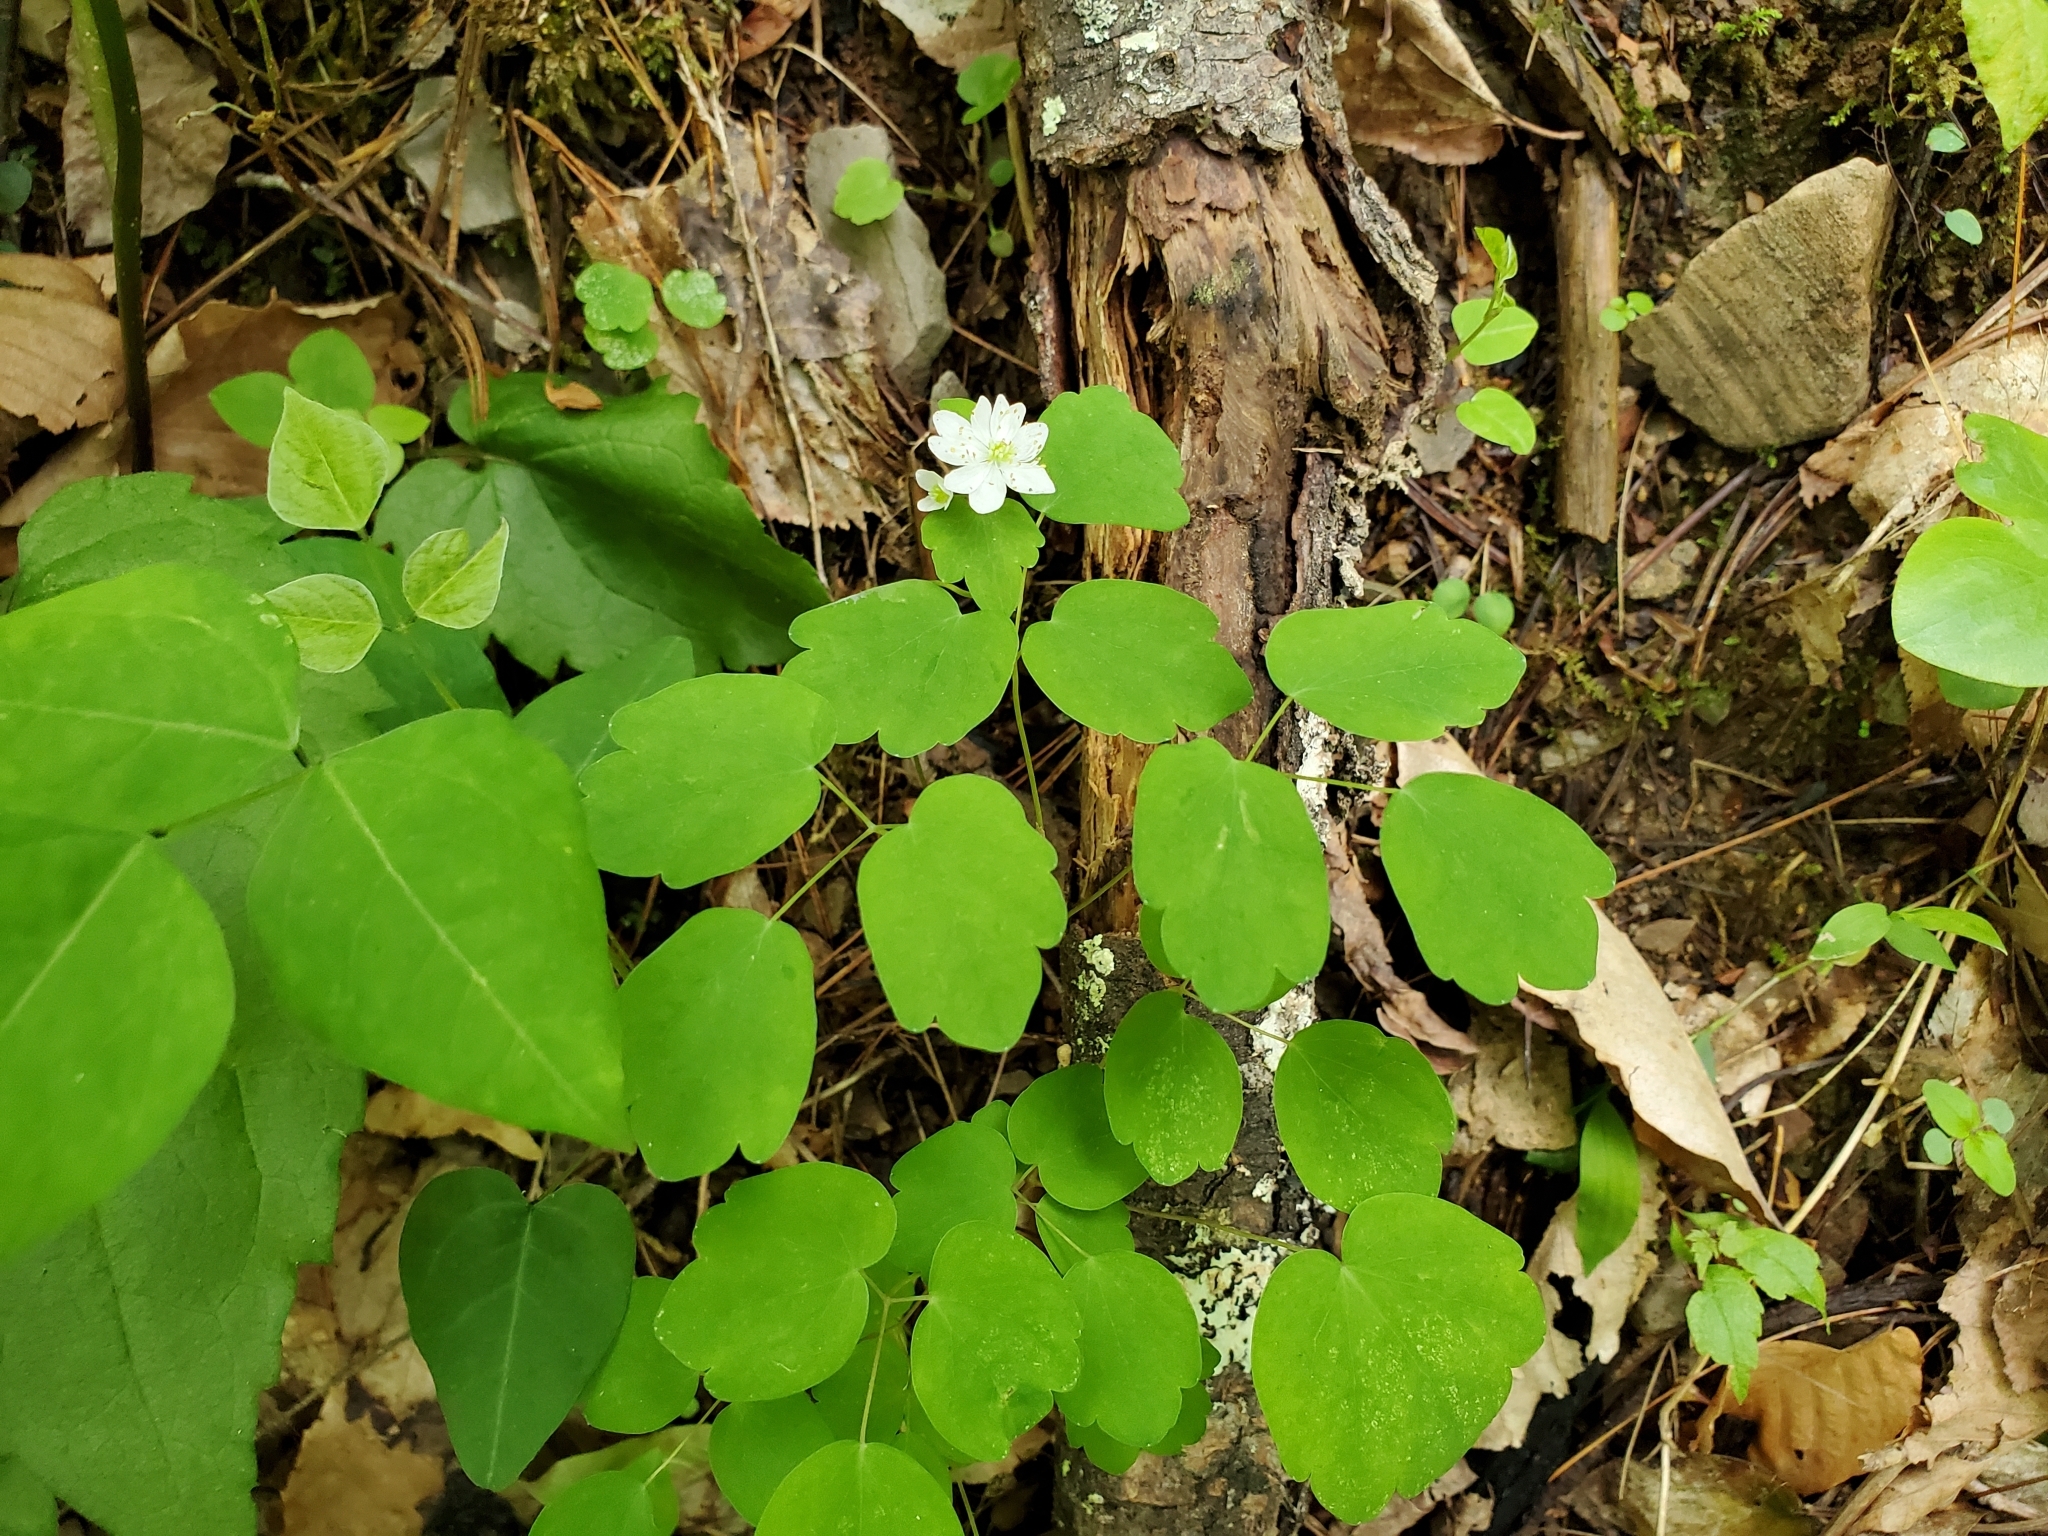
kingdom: Plantae
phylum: Tracheophyta
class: Magnoliopsida
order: Ranunculales
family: Ranunculaceae
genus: Thalictrum
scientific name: Thalictrum thalictroides
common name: Rue-anemone
